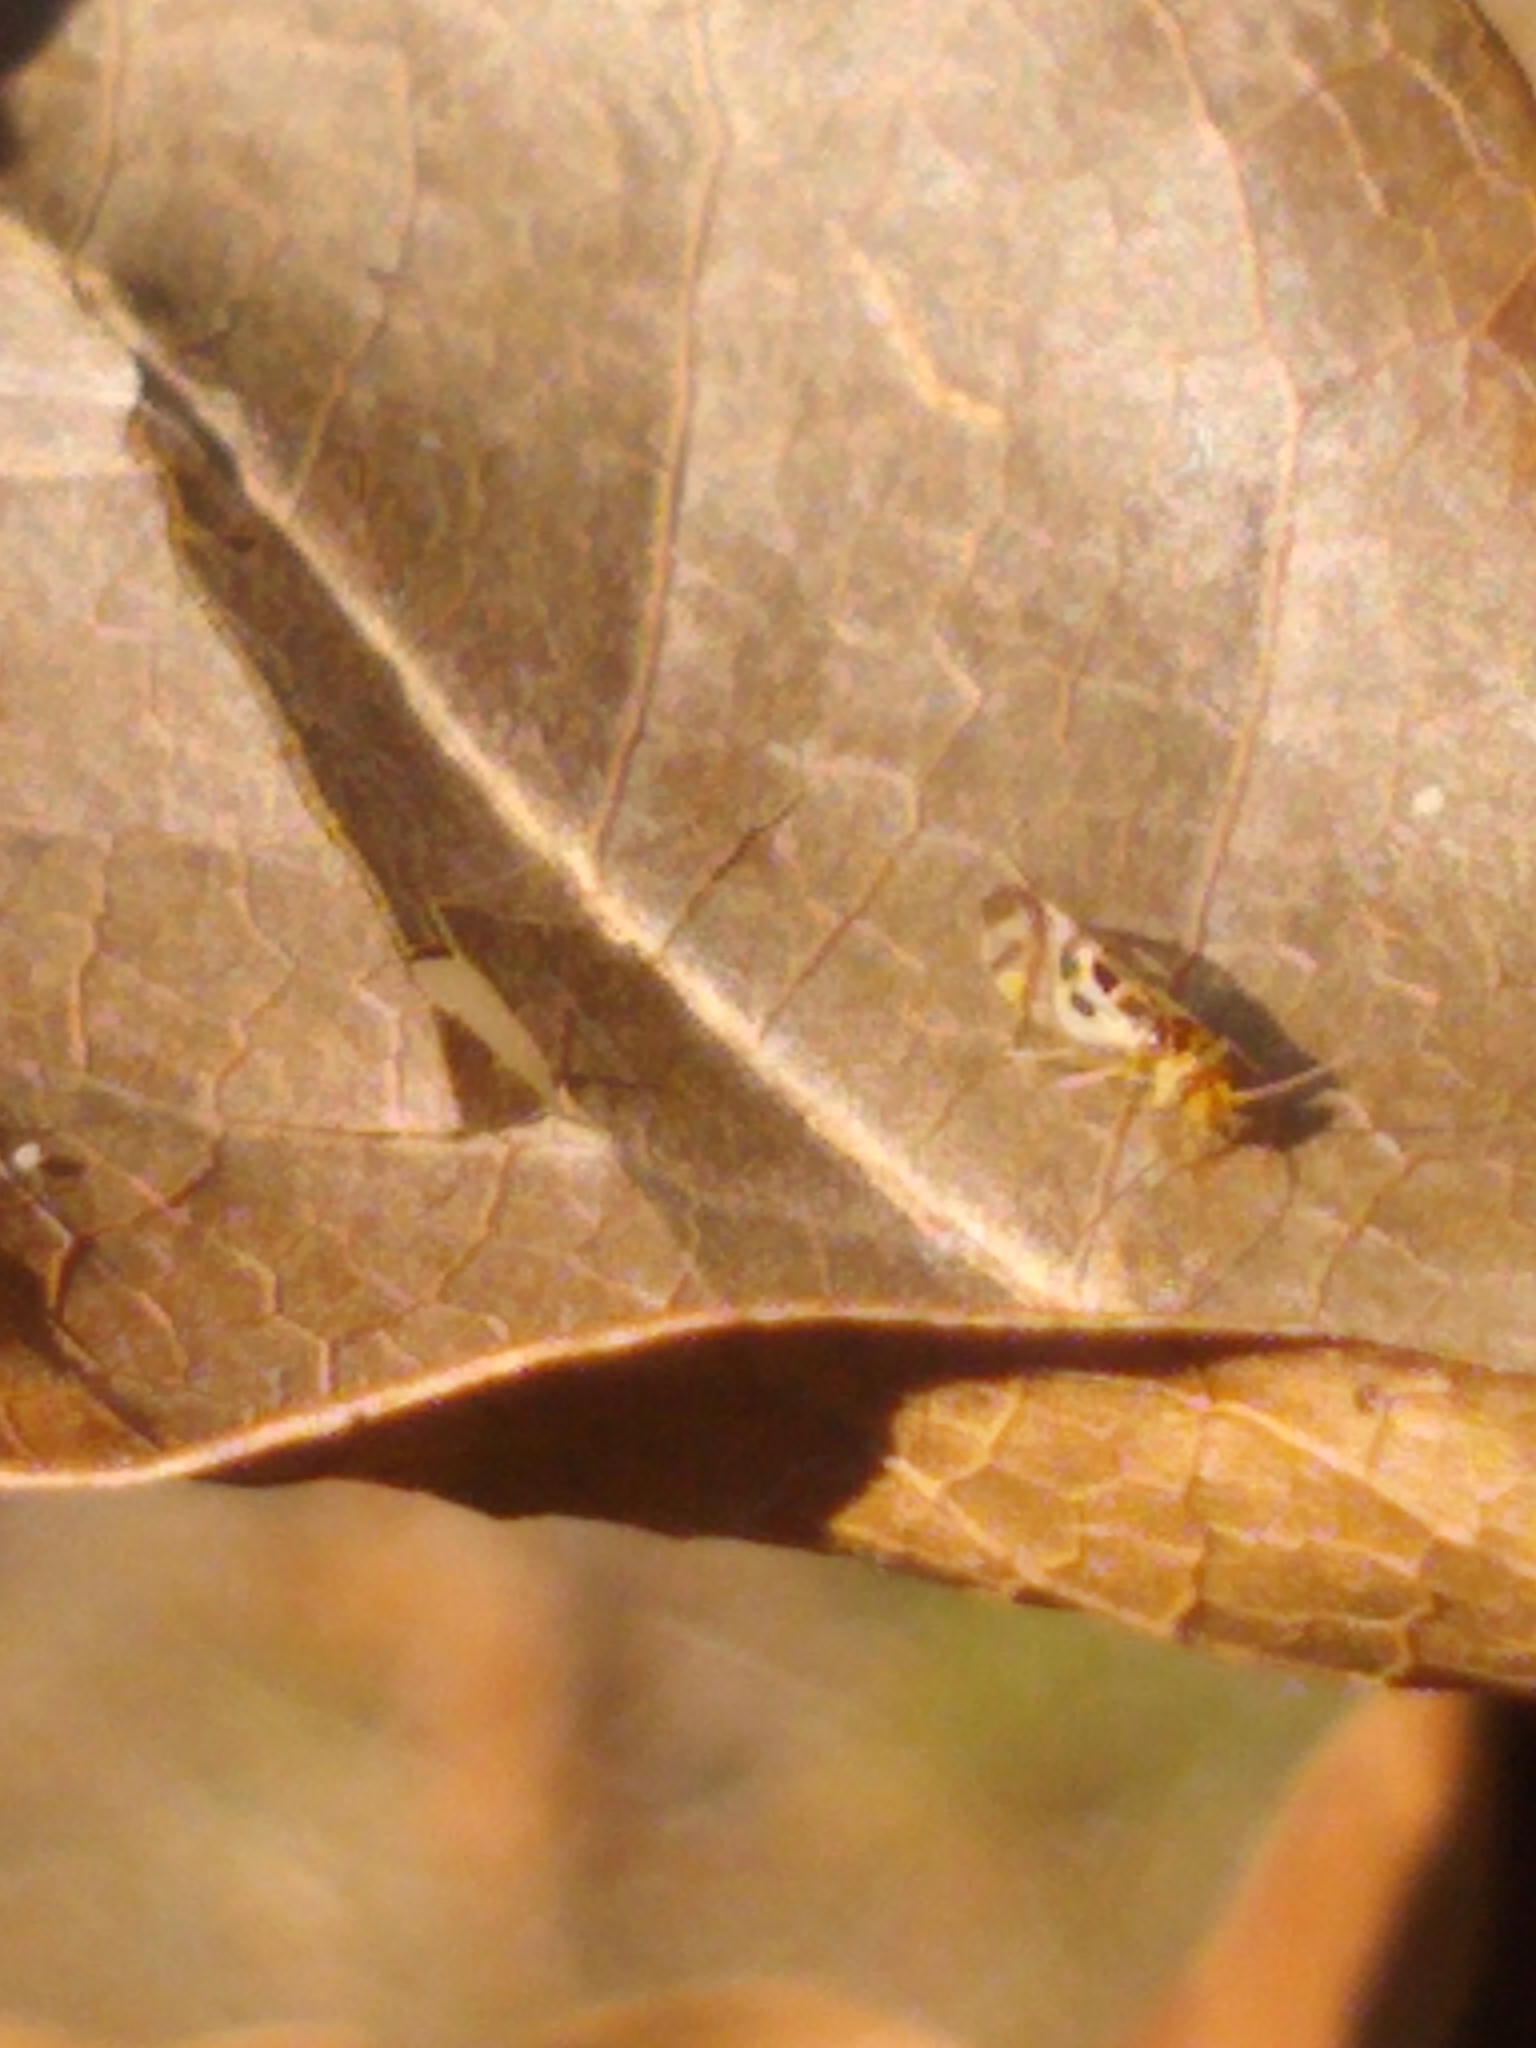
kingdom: Animalia
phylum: Arthropoda
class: Insecta
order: Psocodea
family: Stenopsocidae
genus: Graphopsocus
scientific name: Graphopsocus cruciatus
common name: Lizard bark louse
